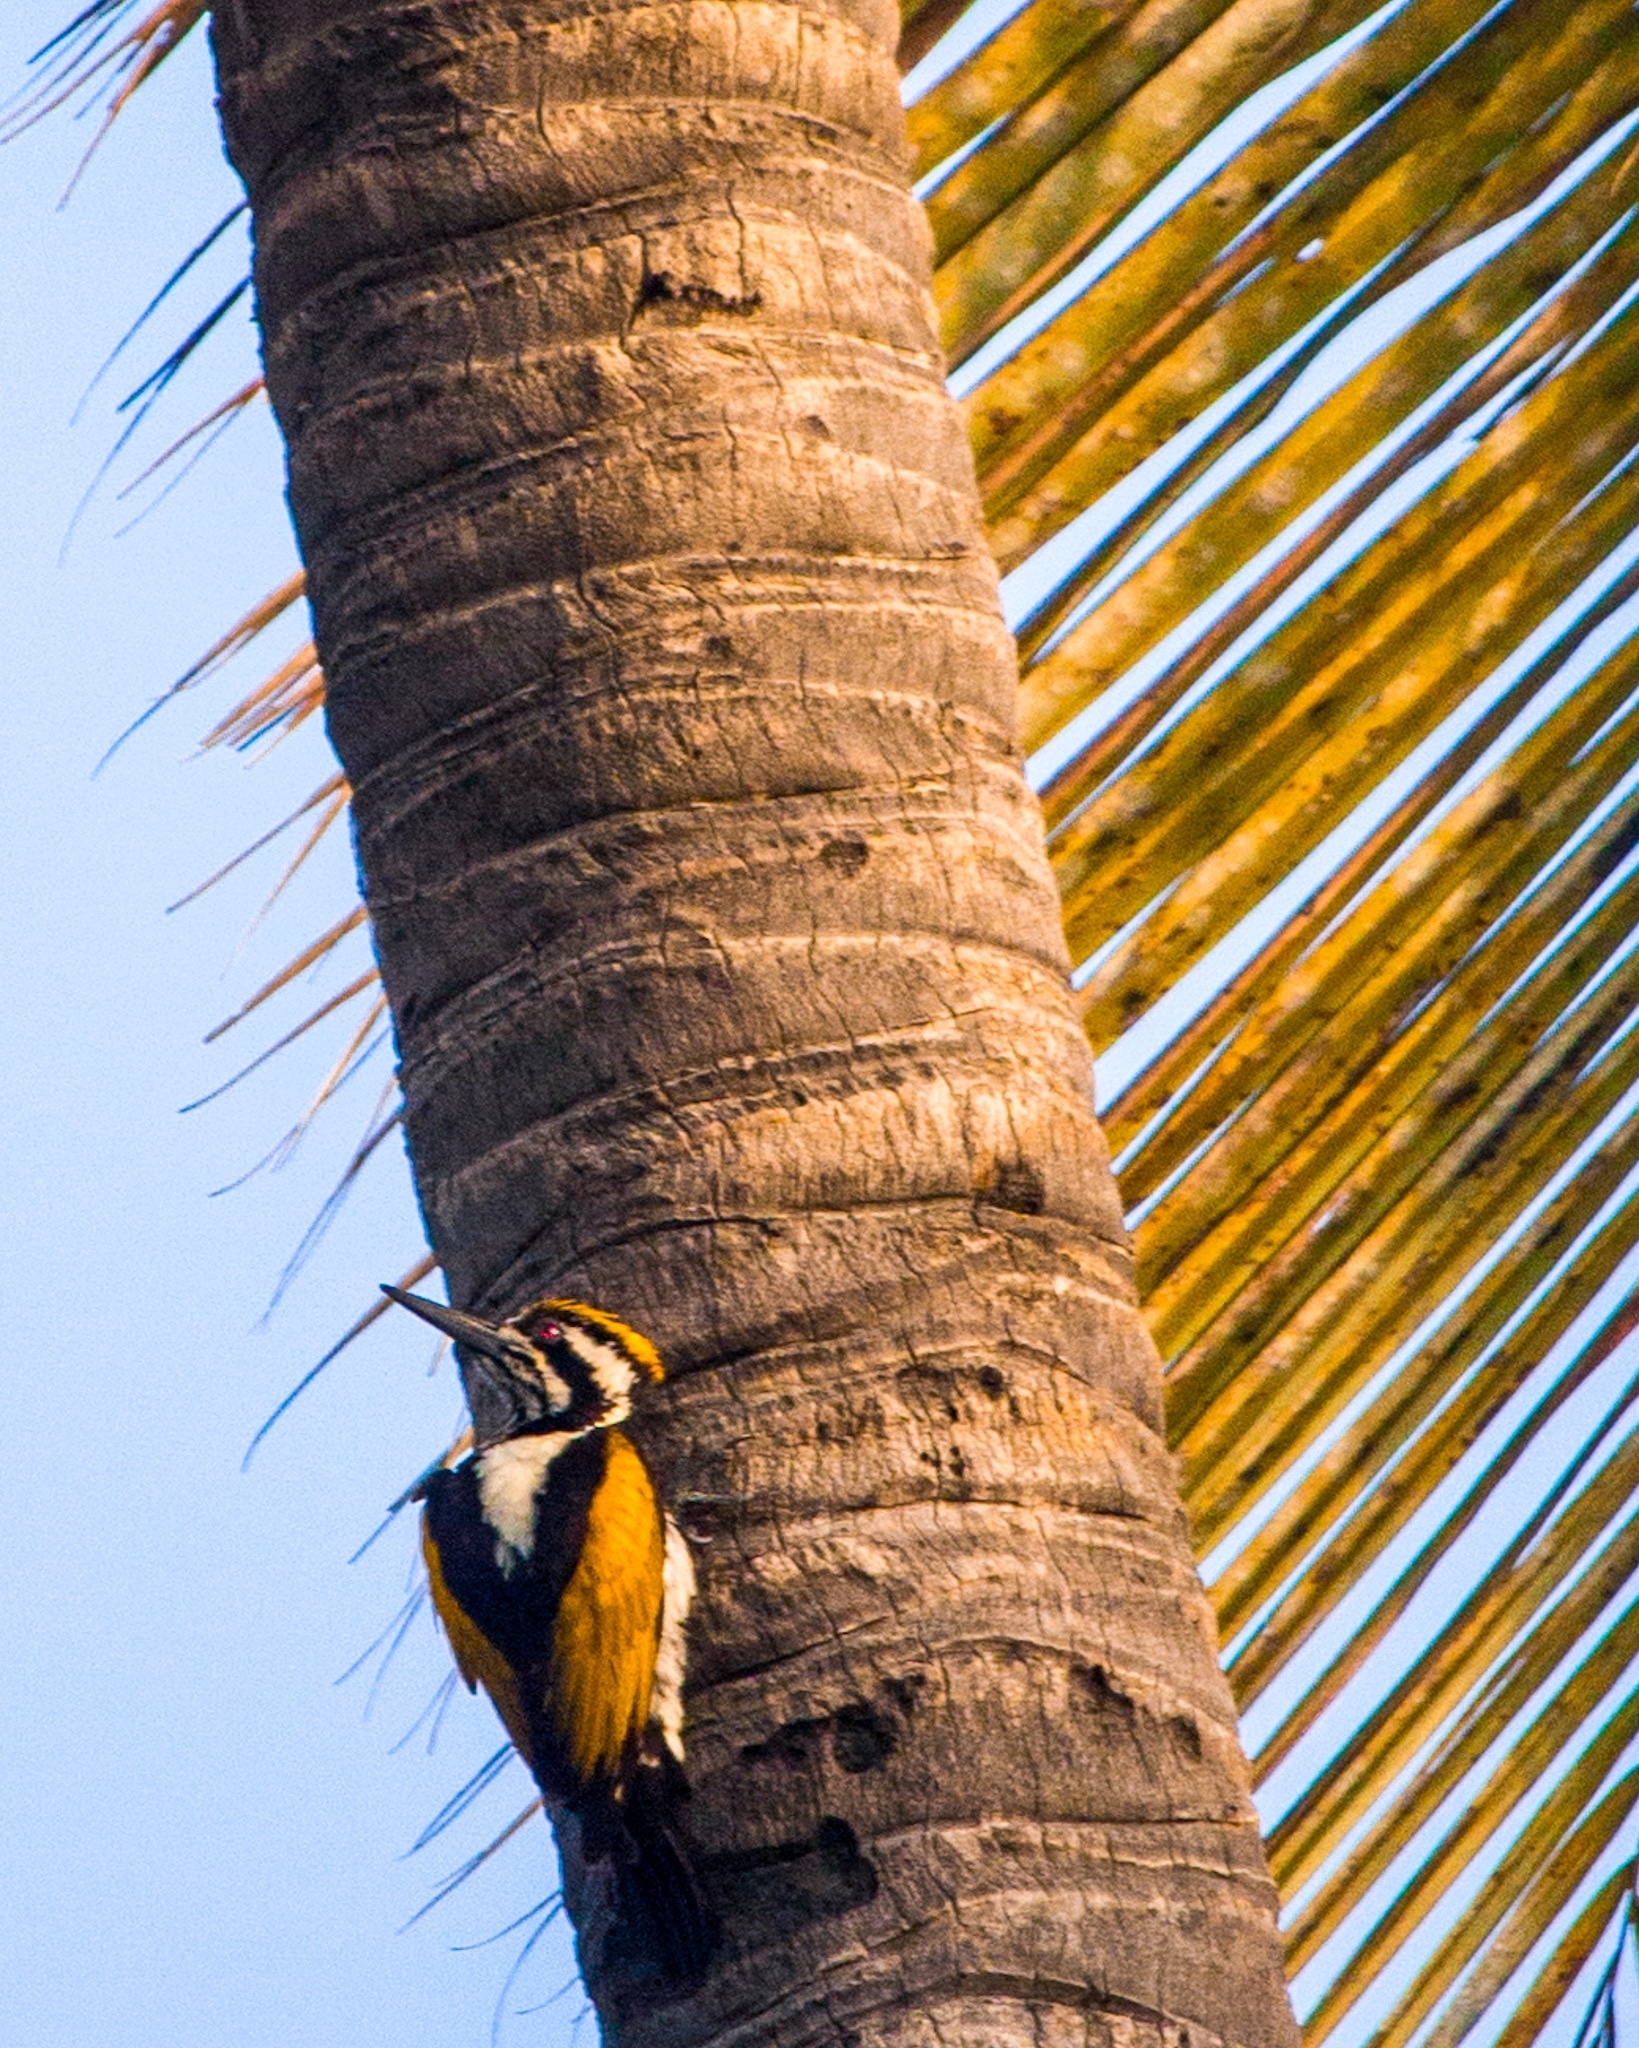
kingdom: Animalia
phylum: Chordata
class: Aves
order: Piciformes
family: Picidae
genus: Chrysocolaptes
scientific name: Chrysocolaptes festivus
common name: White-naped woodpecker
